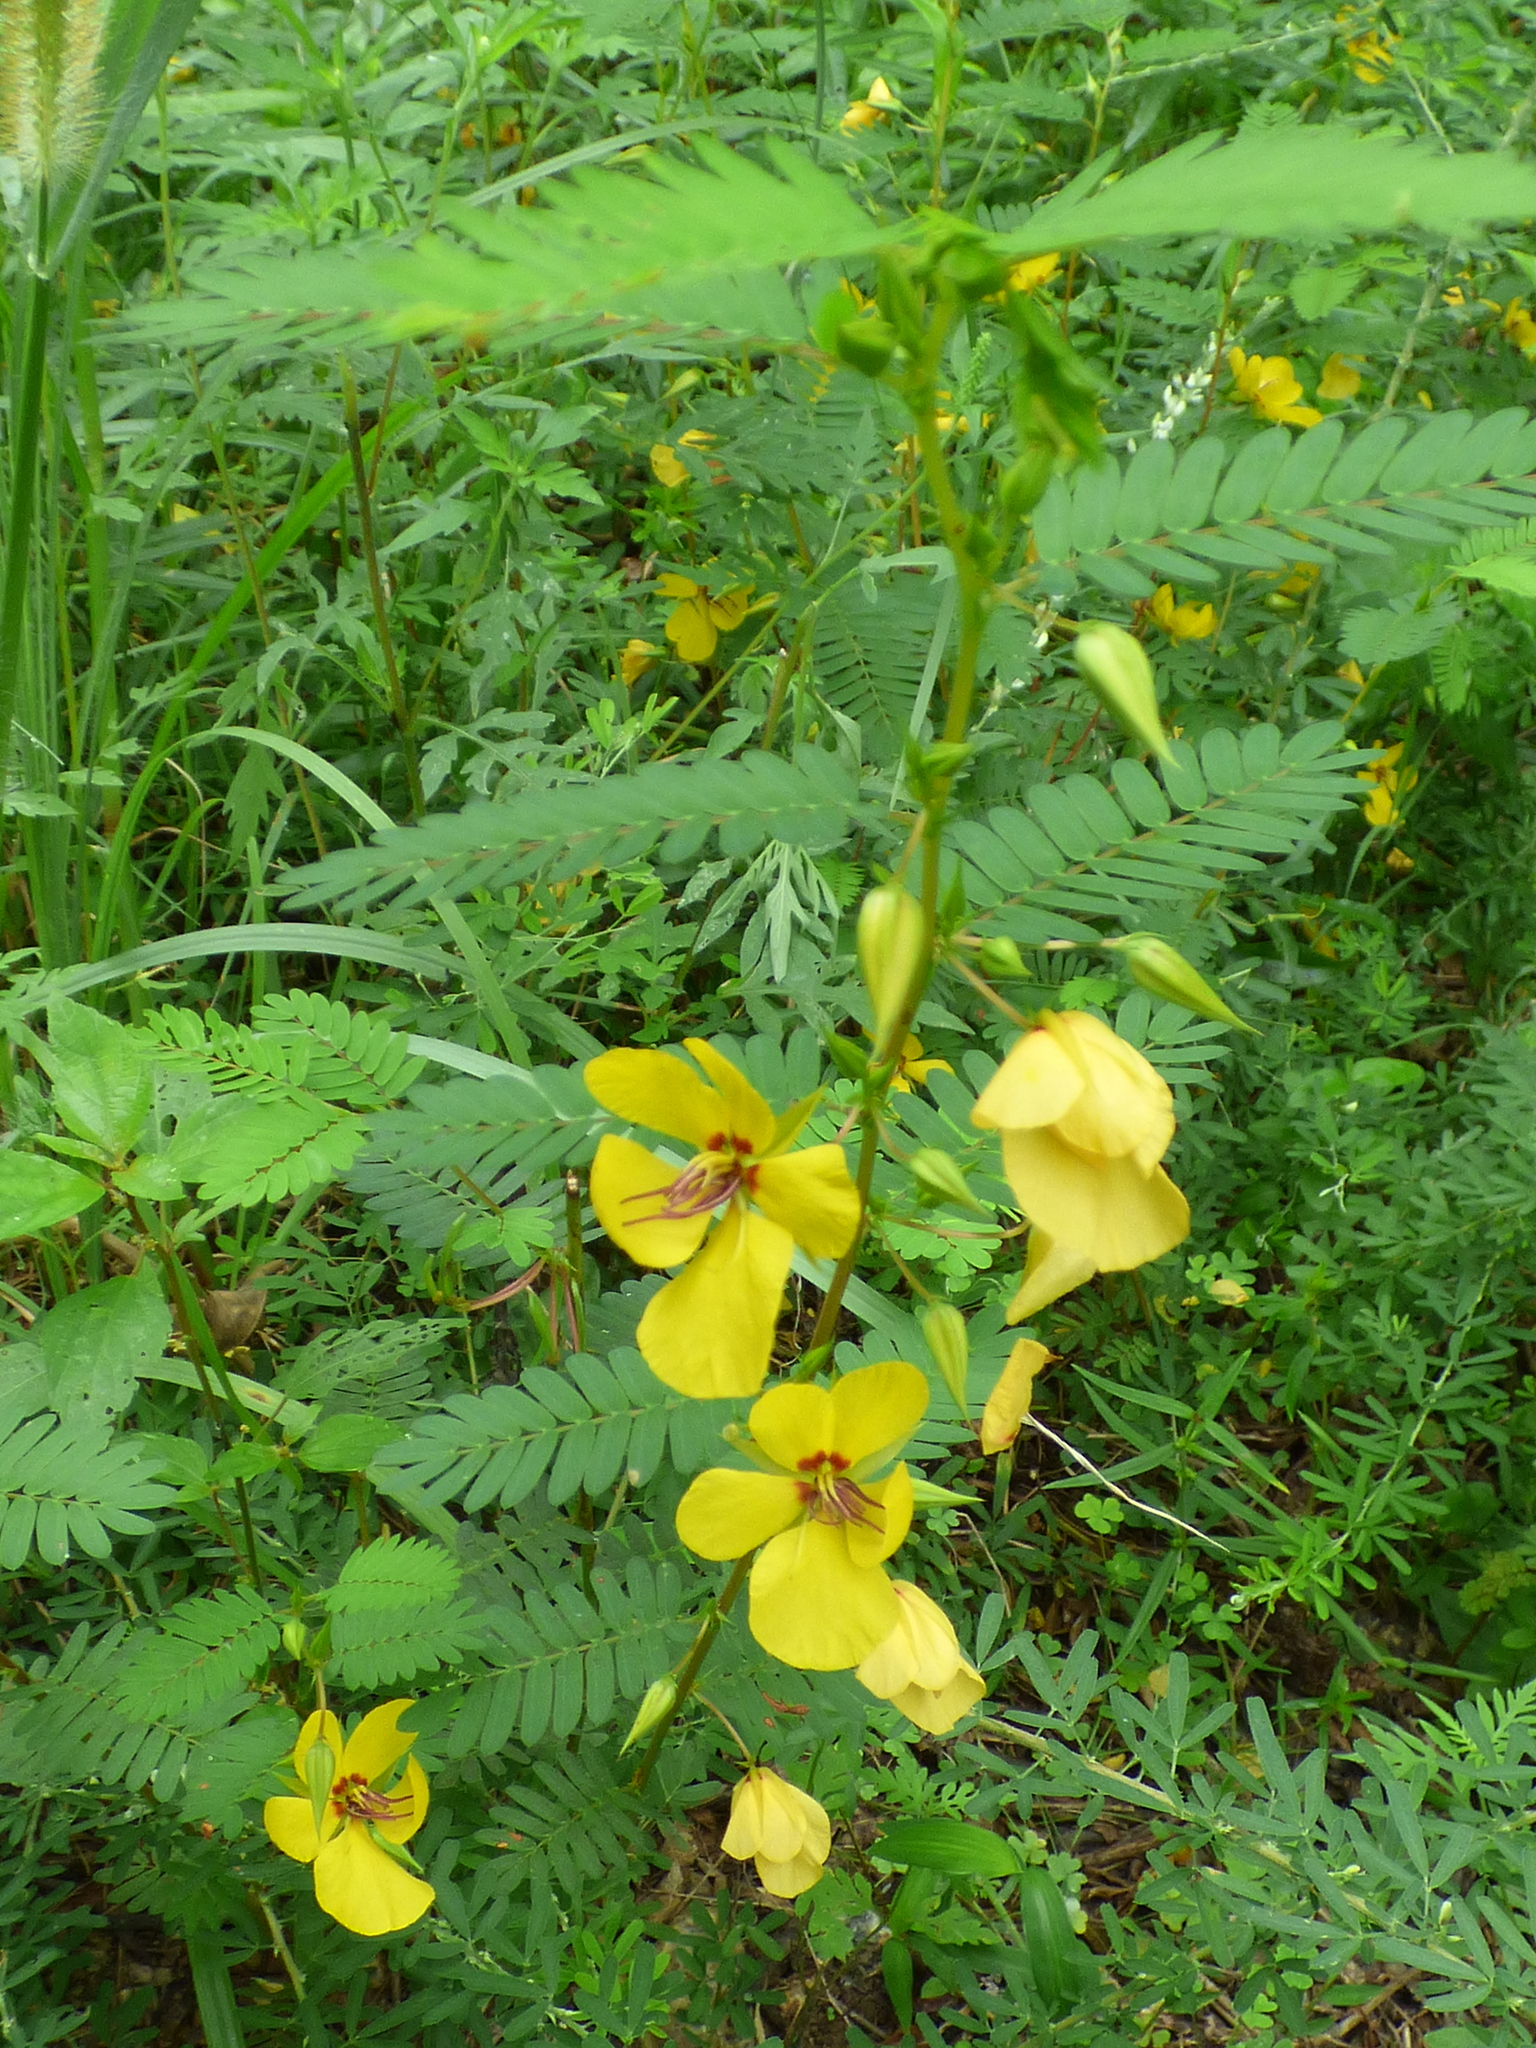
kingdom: Plantae
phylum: Tracheophyta
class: Magnoliopsida
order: Fabales
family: Fabaceae
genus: Chamaecrista
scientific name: Chamaecrista fasciculata
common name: Golden cassia
